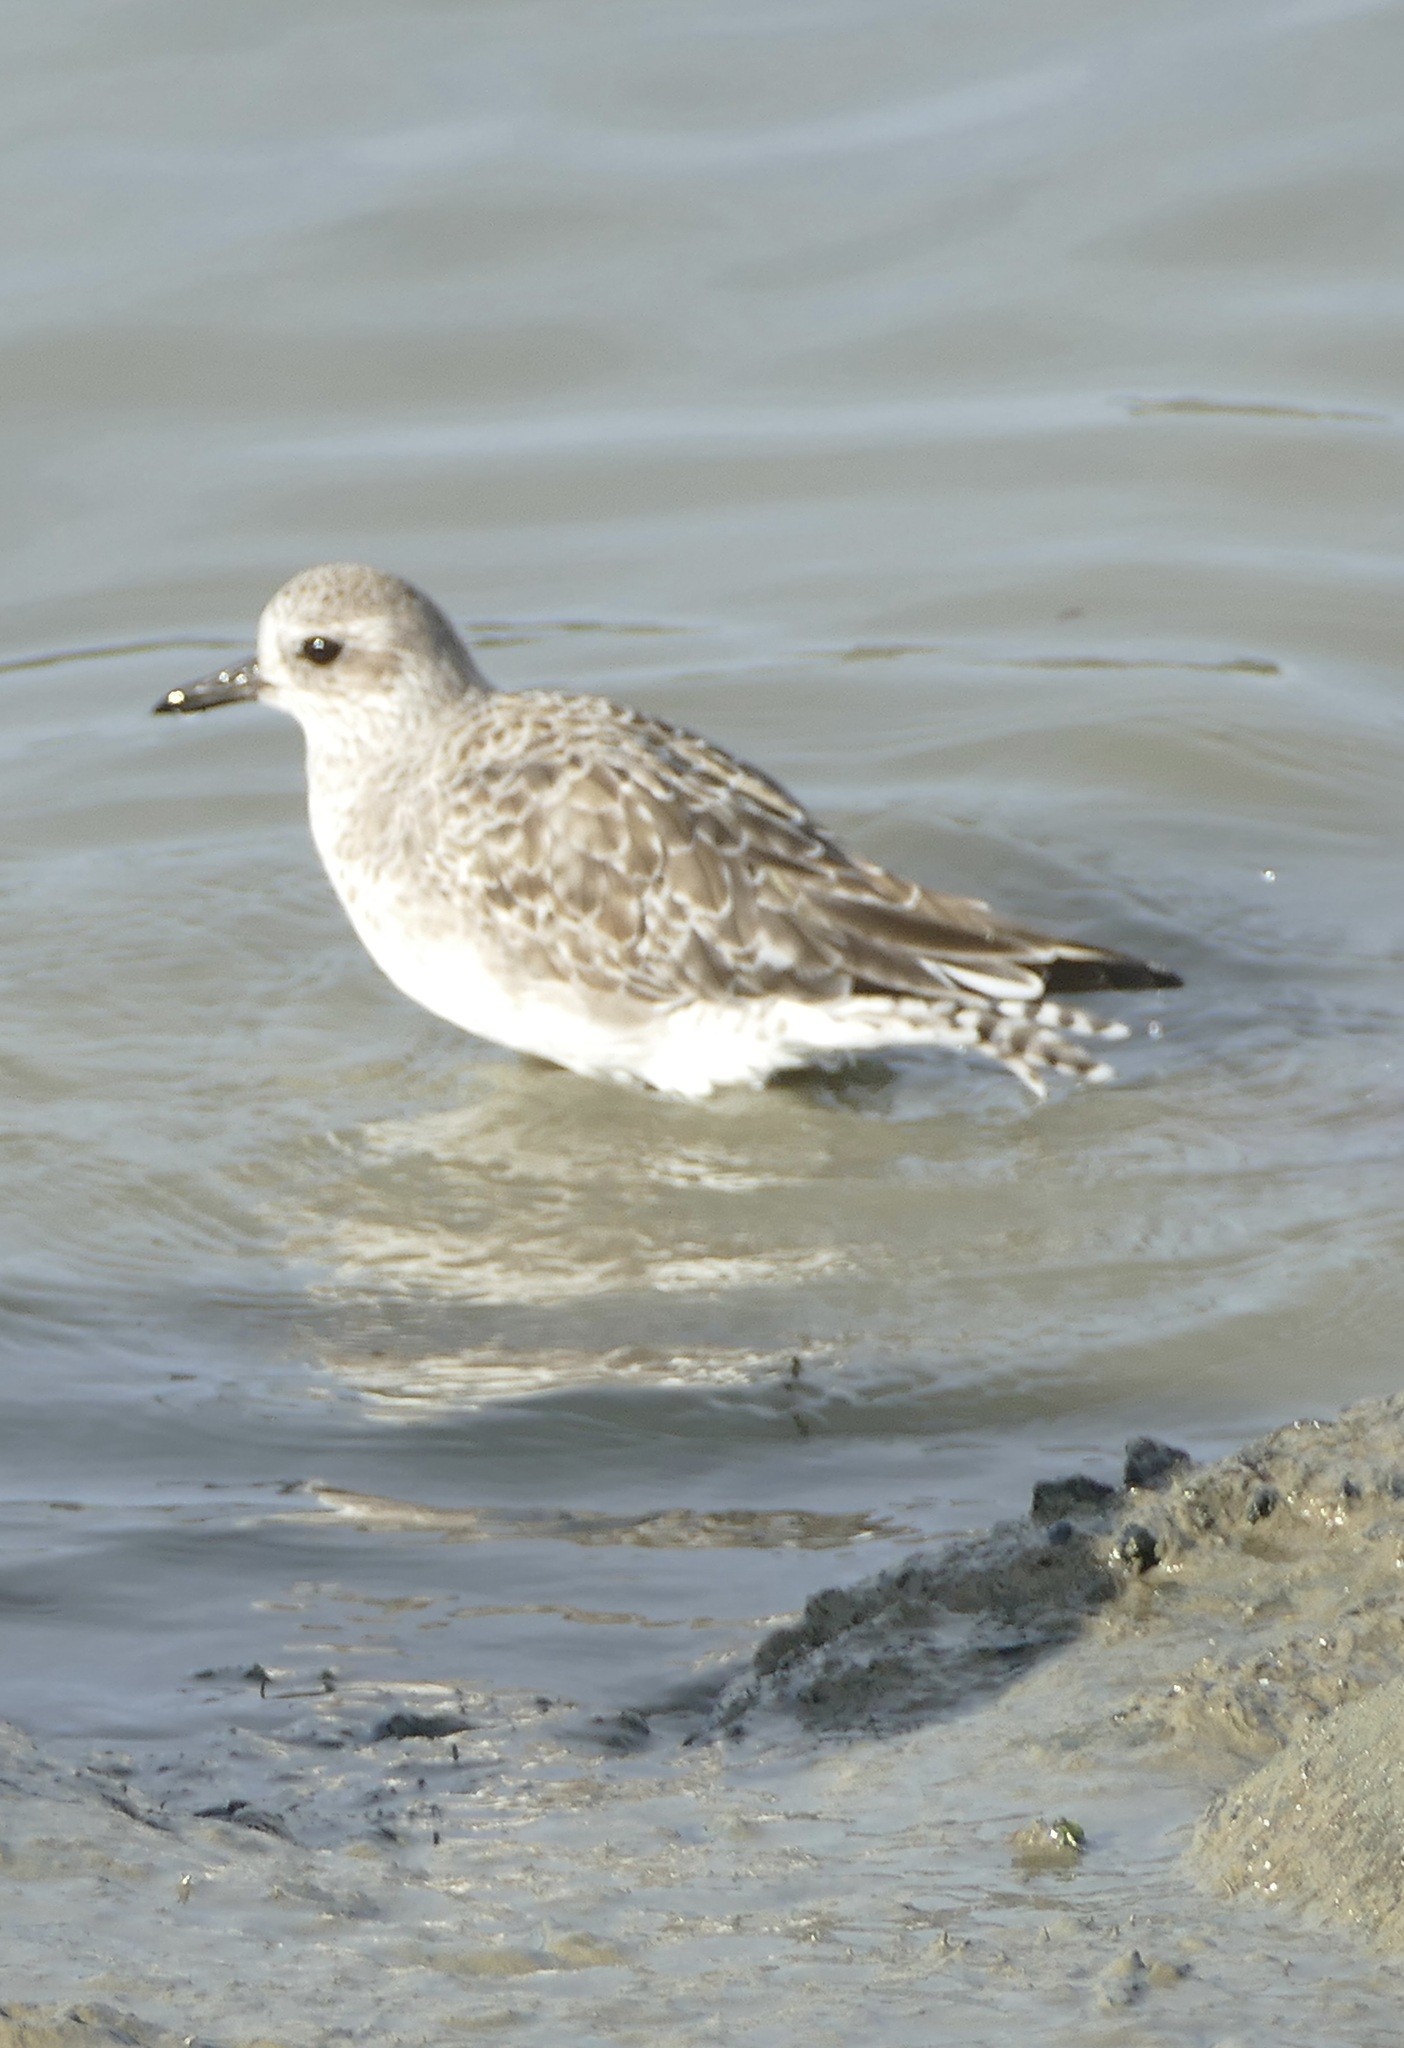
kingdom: Animalia
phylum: Chordata
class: Aves
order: Charadriiformes
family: Charadriidae
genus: Pluvialis
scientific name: Pluvialis squatarola
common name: Grey plover
